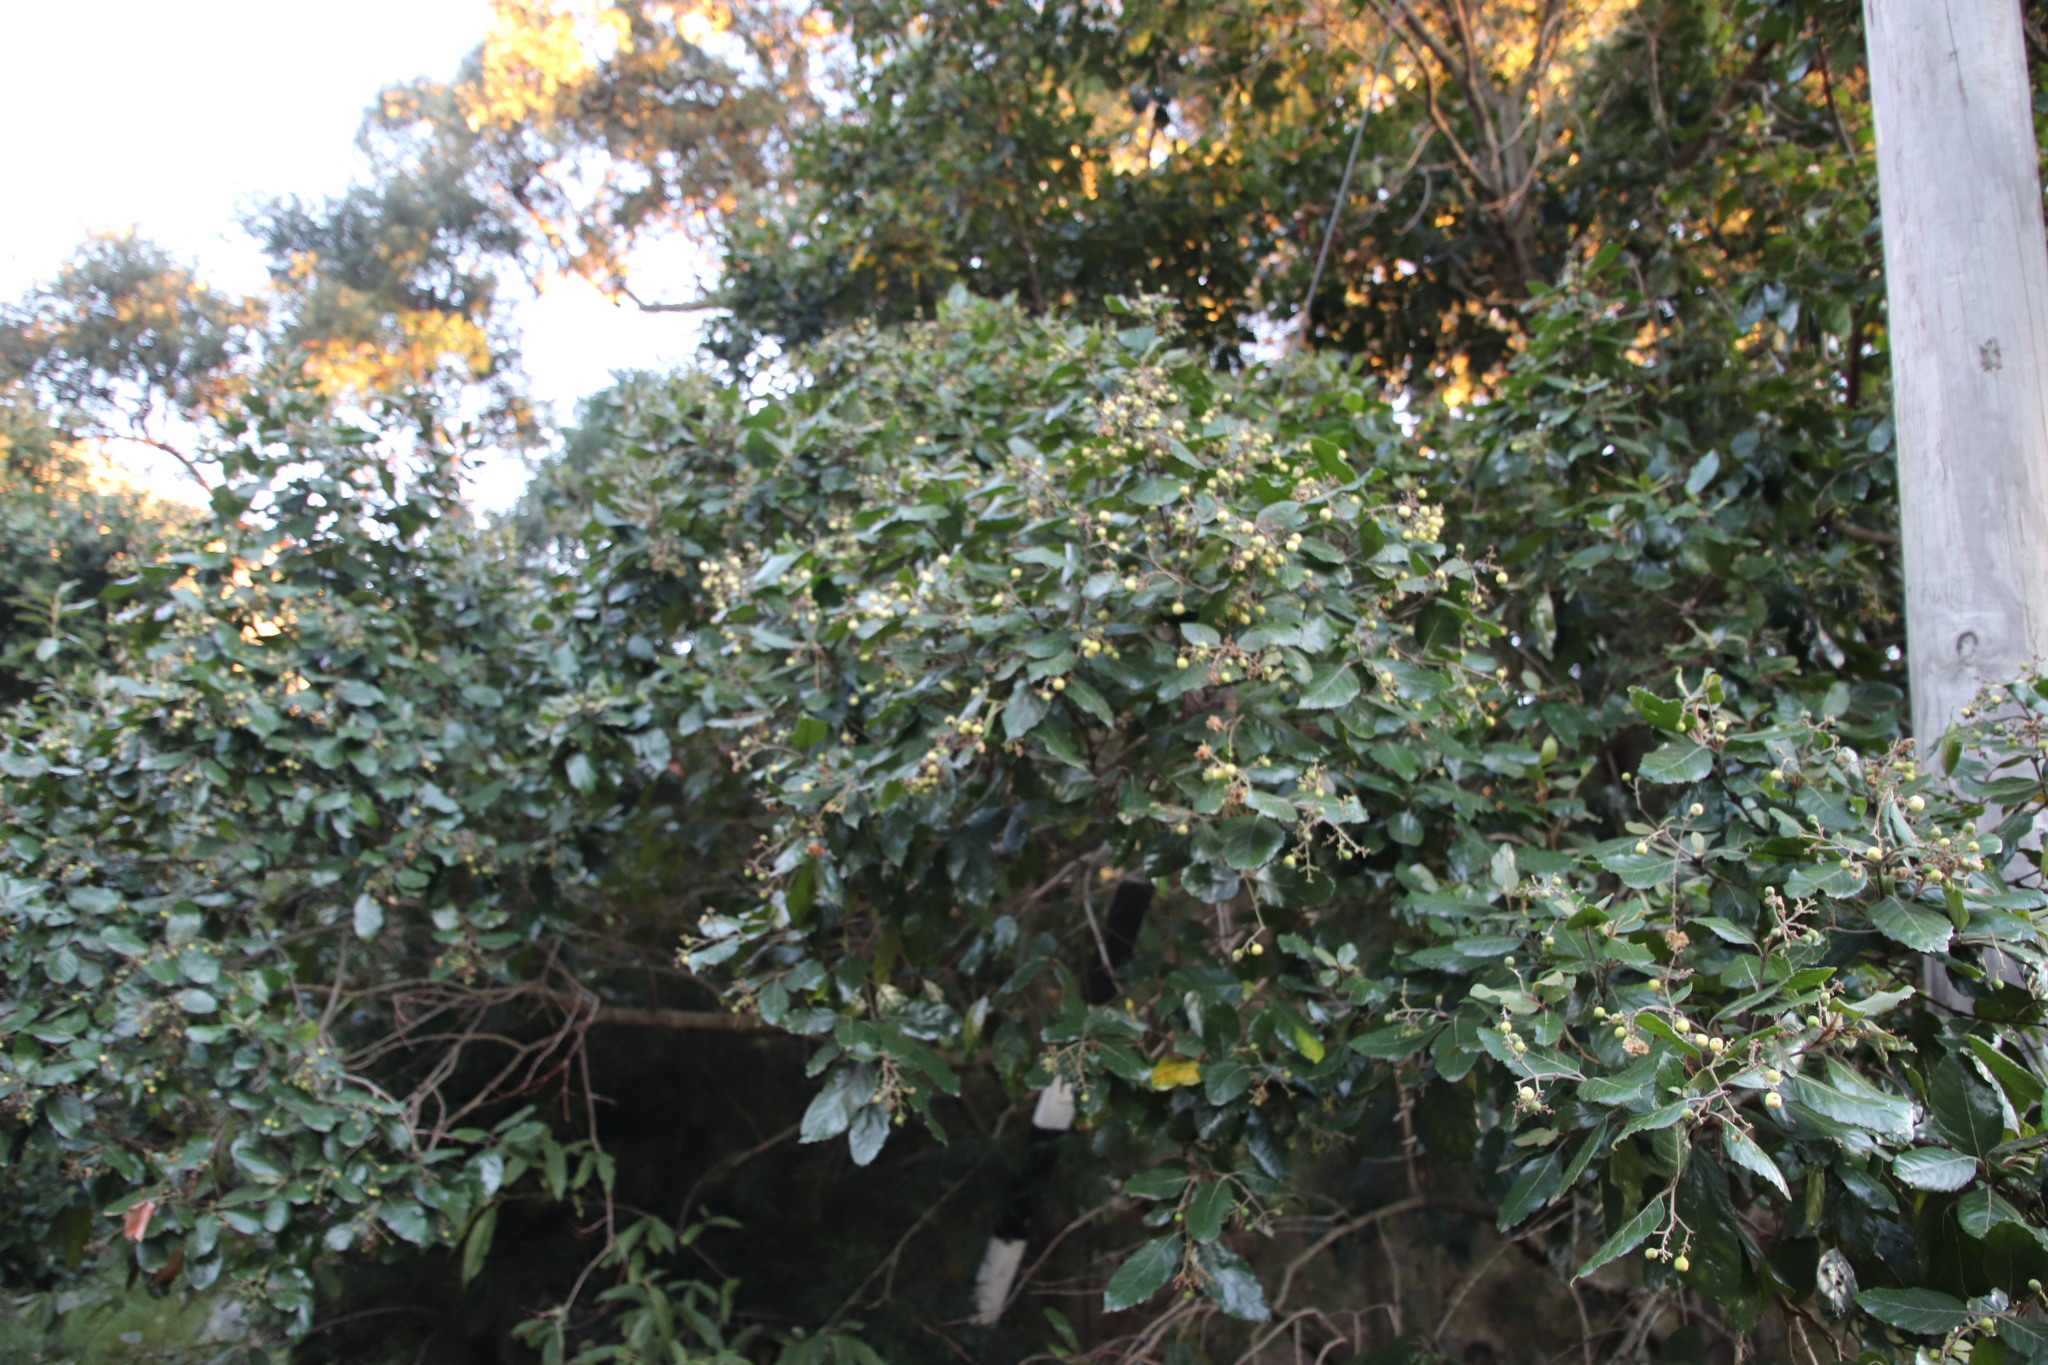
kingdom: Plantae
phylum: Tracheophyta
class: Magnoliopsida
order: Cornales
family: Curtisiaceae
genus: Curtisia
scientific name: Curtisia dentata
